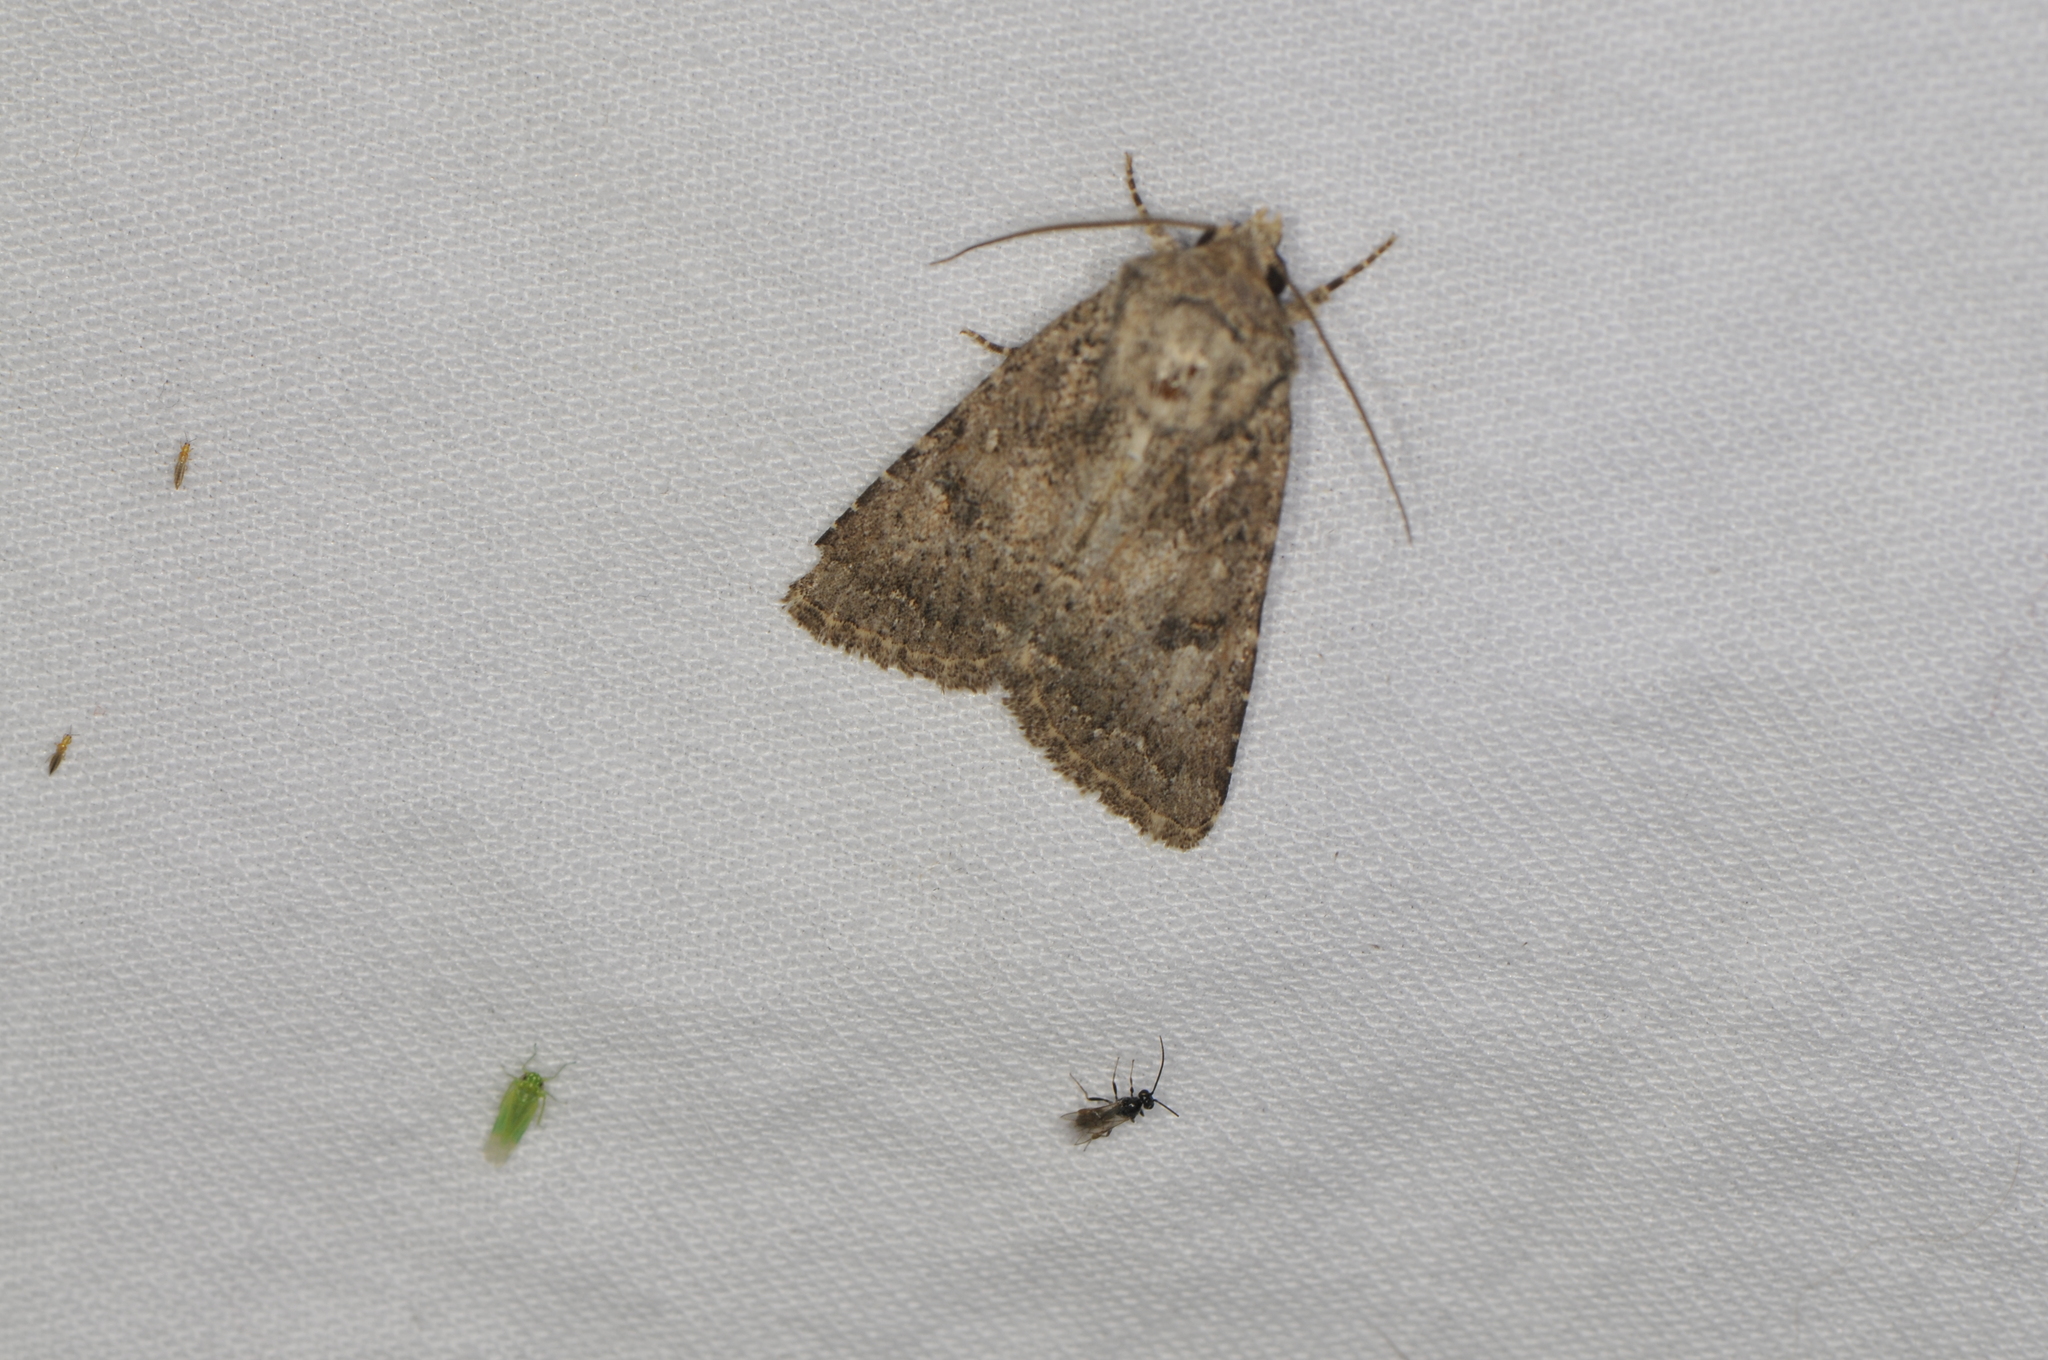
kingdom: Animalia
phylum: Arthropoda
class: Insecta
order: Thysanoptera
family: Thripidae
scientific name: Thripidae
